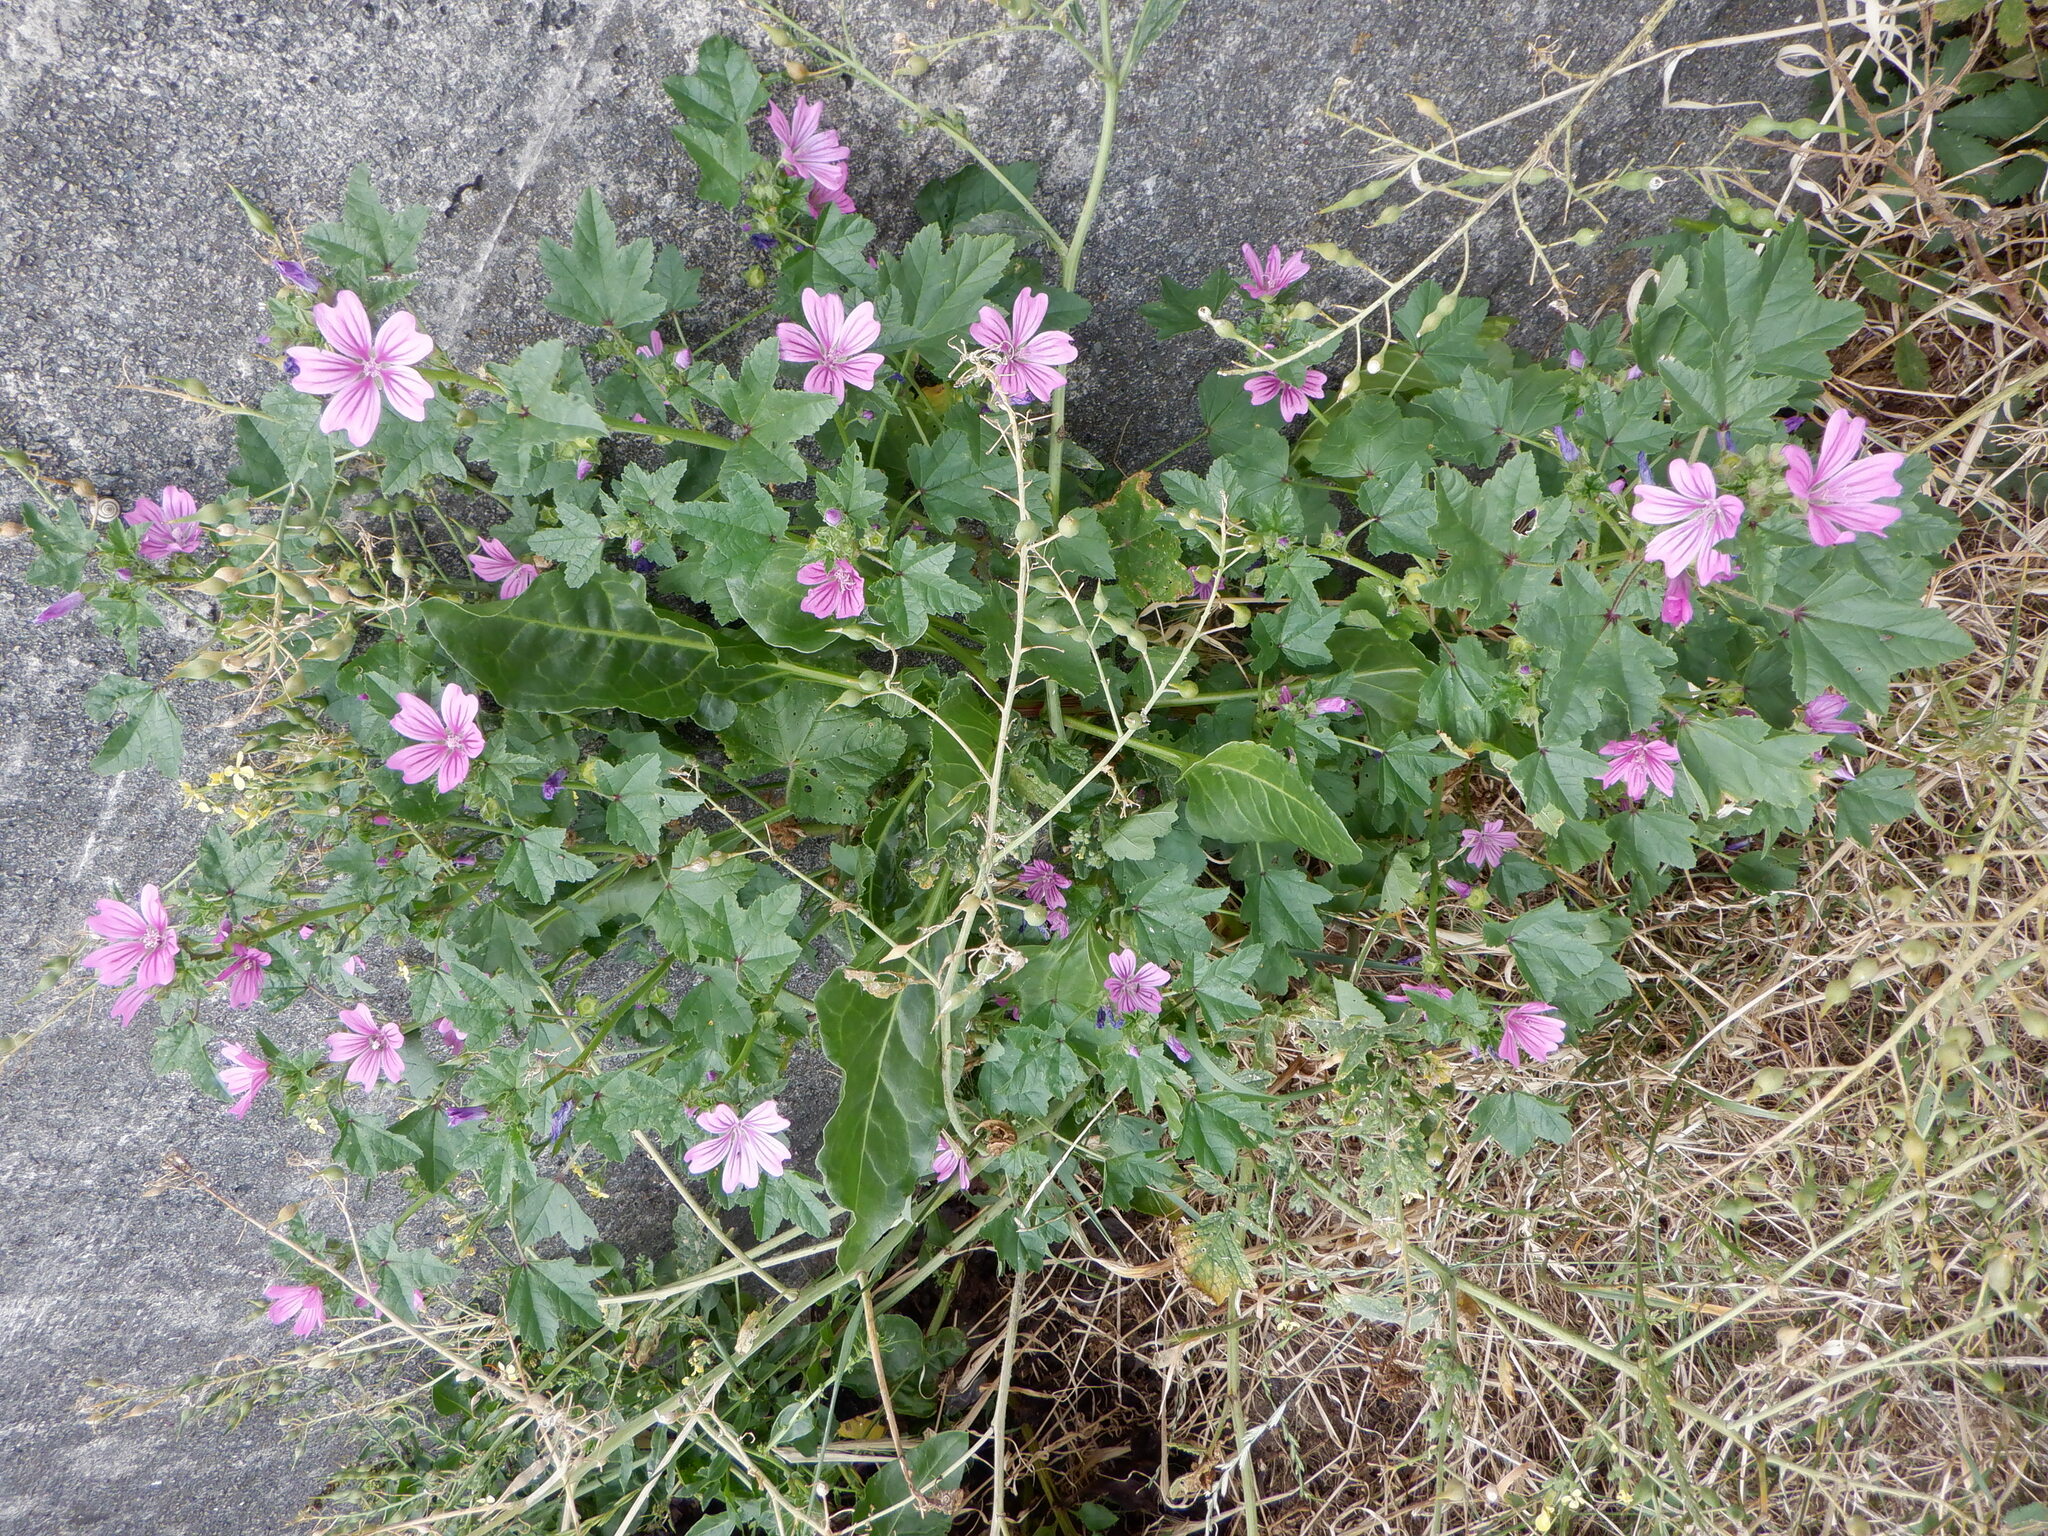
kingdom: Plantae
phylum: Tracheophyta
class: Magnoliopsida
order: Malvales
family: Malvaceae
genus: Malva
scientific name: Malva sylvestris
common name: Common mallow
